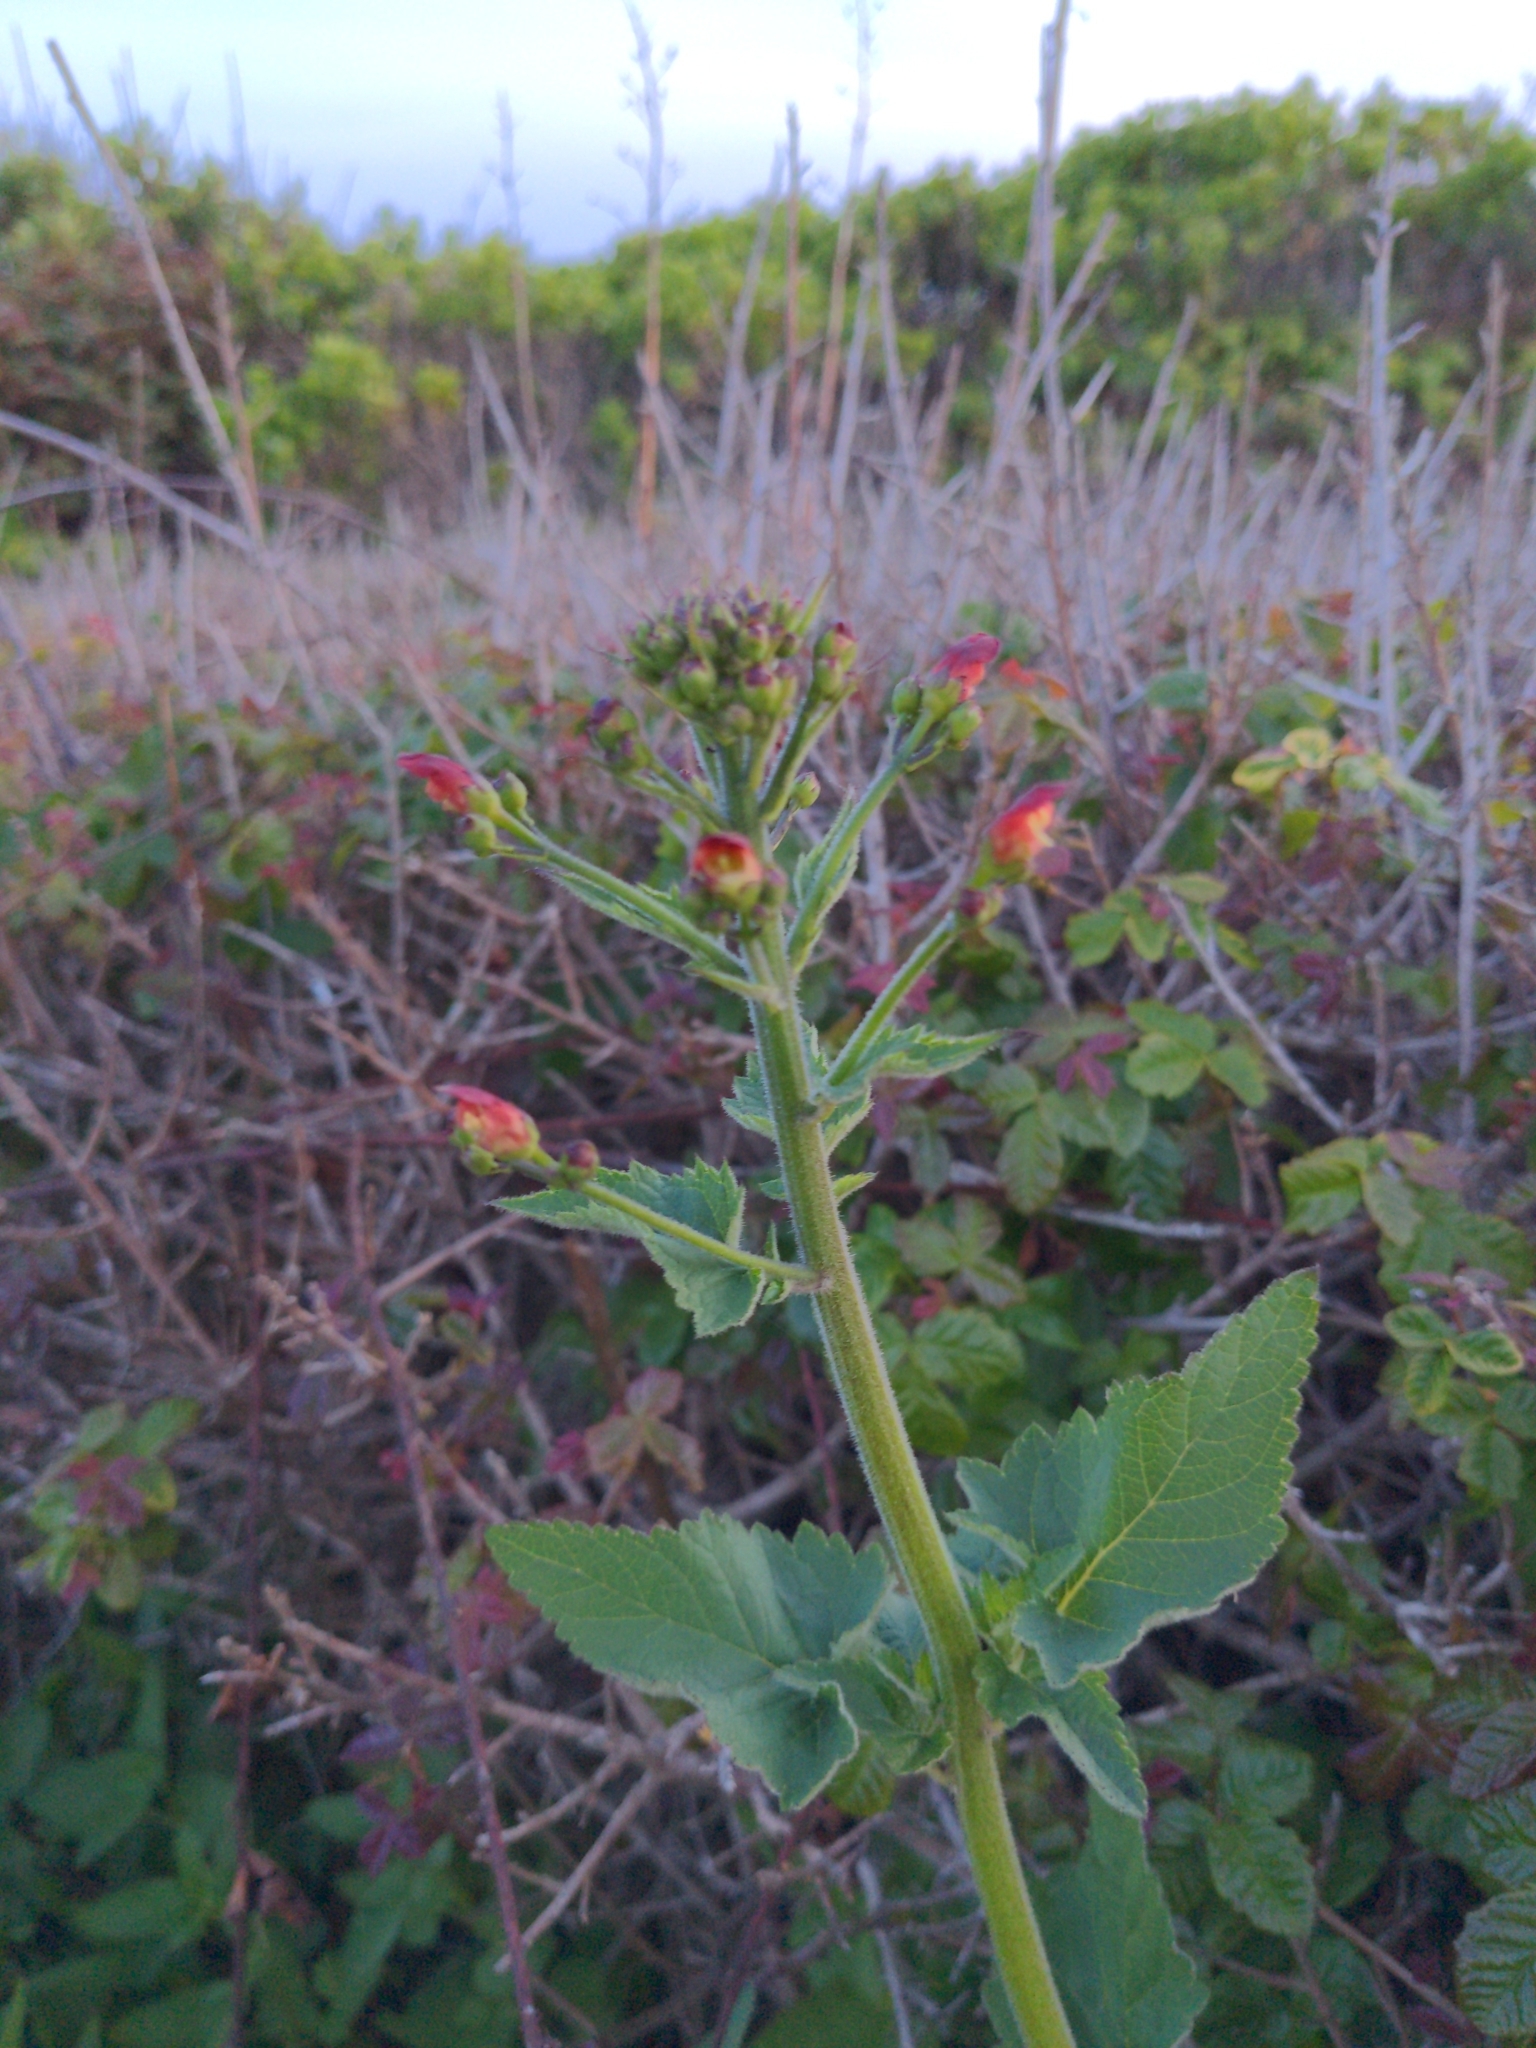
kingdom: Plantae
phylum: Tracheophyta
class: Magnoliopsida
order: Lamiales
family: Scrophulariaceae
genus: Scrophularia
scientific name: Scrophularia californica
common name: California figwort
